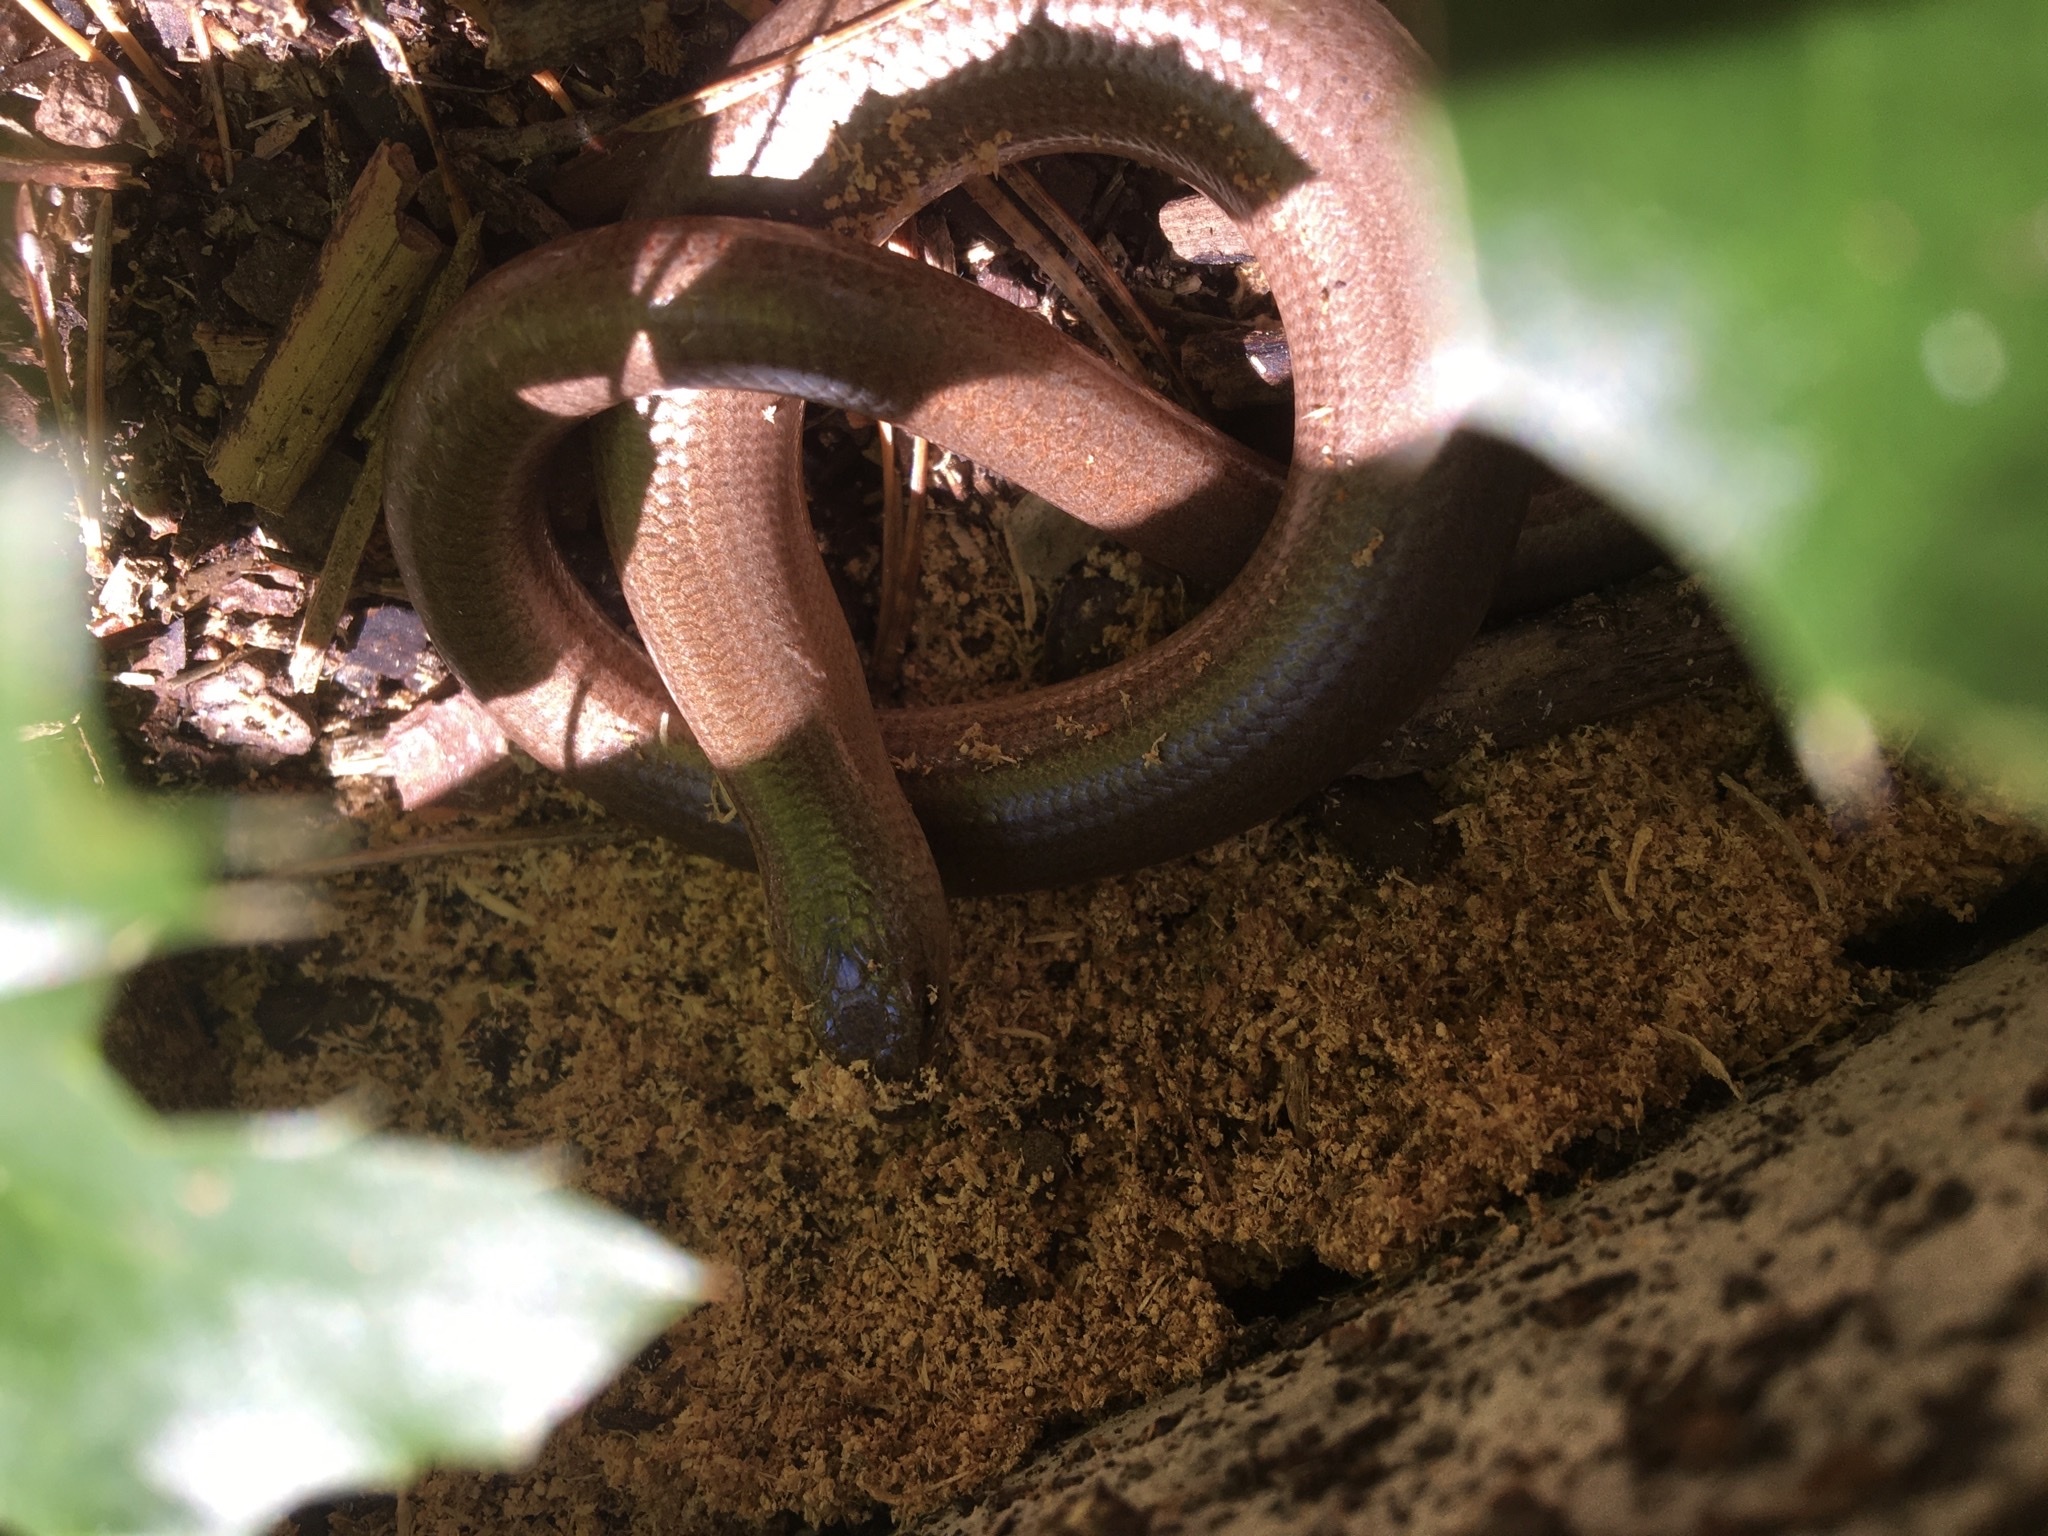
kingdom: Animalia
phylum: Chordata
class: Squamata
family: Anguidae
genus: Anguis
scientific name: Anguis fragilis
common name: Slow worm
